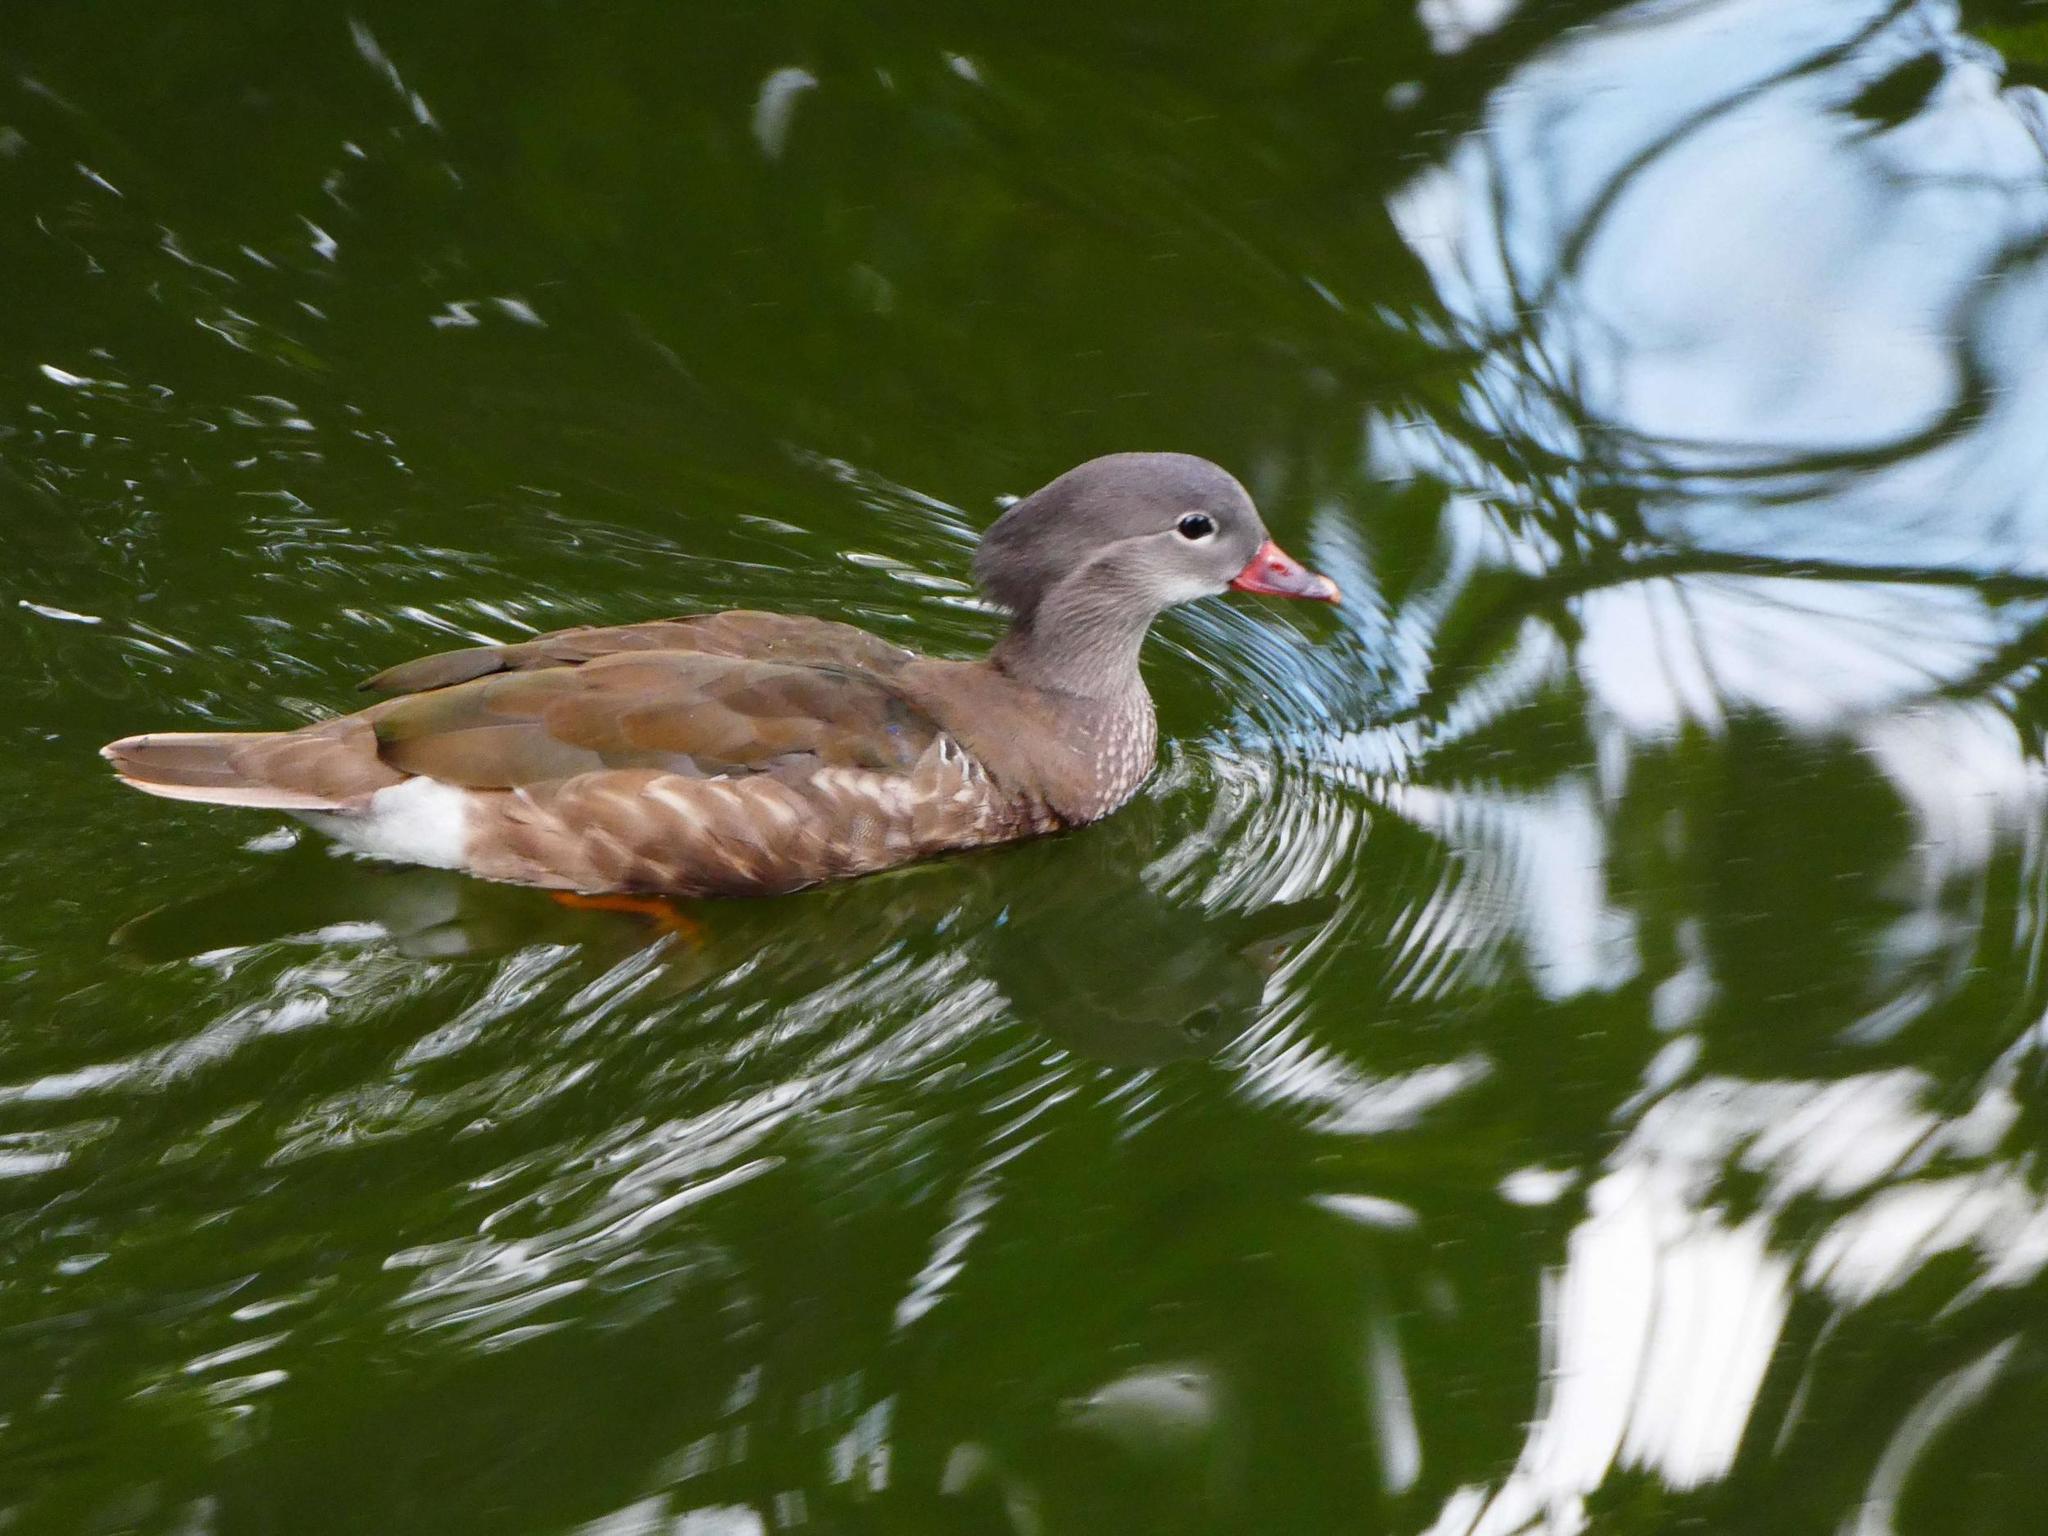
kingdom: Animalia
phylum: Chordata
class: Aves
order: Anseriformes
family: Anatidae
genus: Aix
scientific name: Aix galericulata
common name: Mandarin duck
